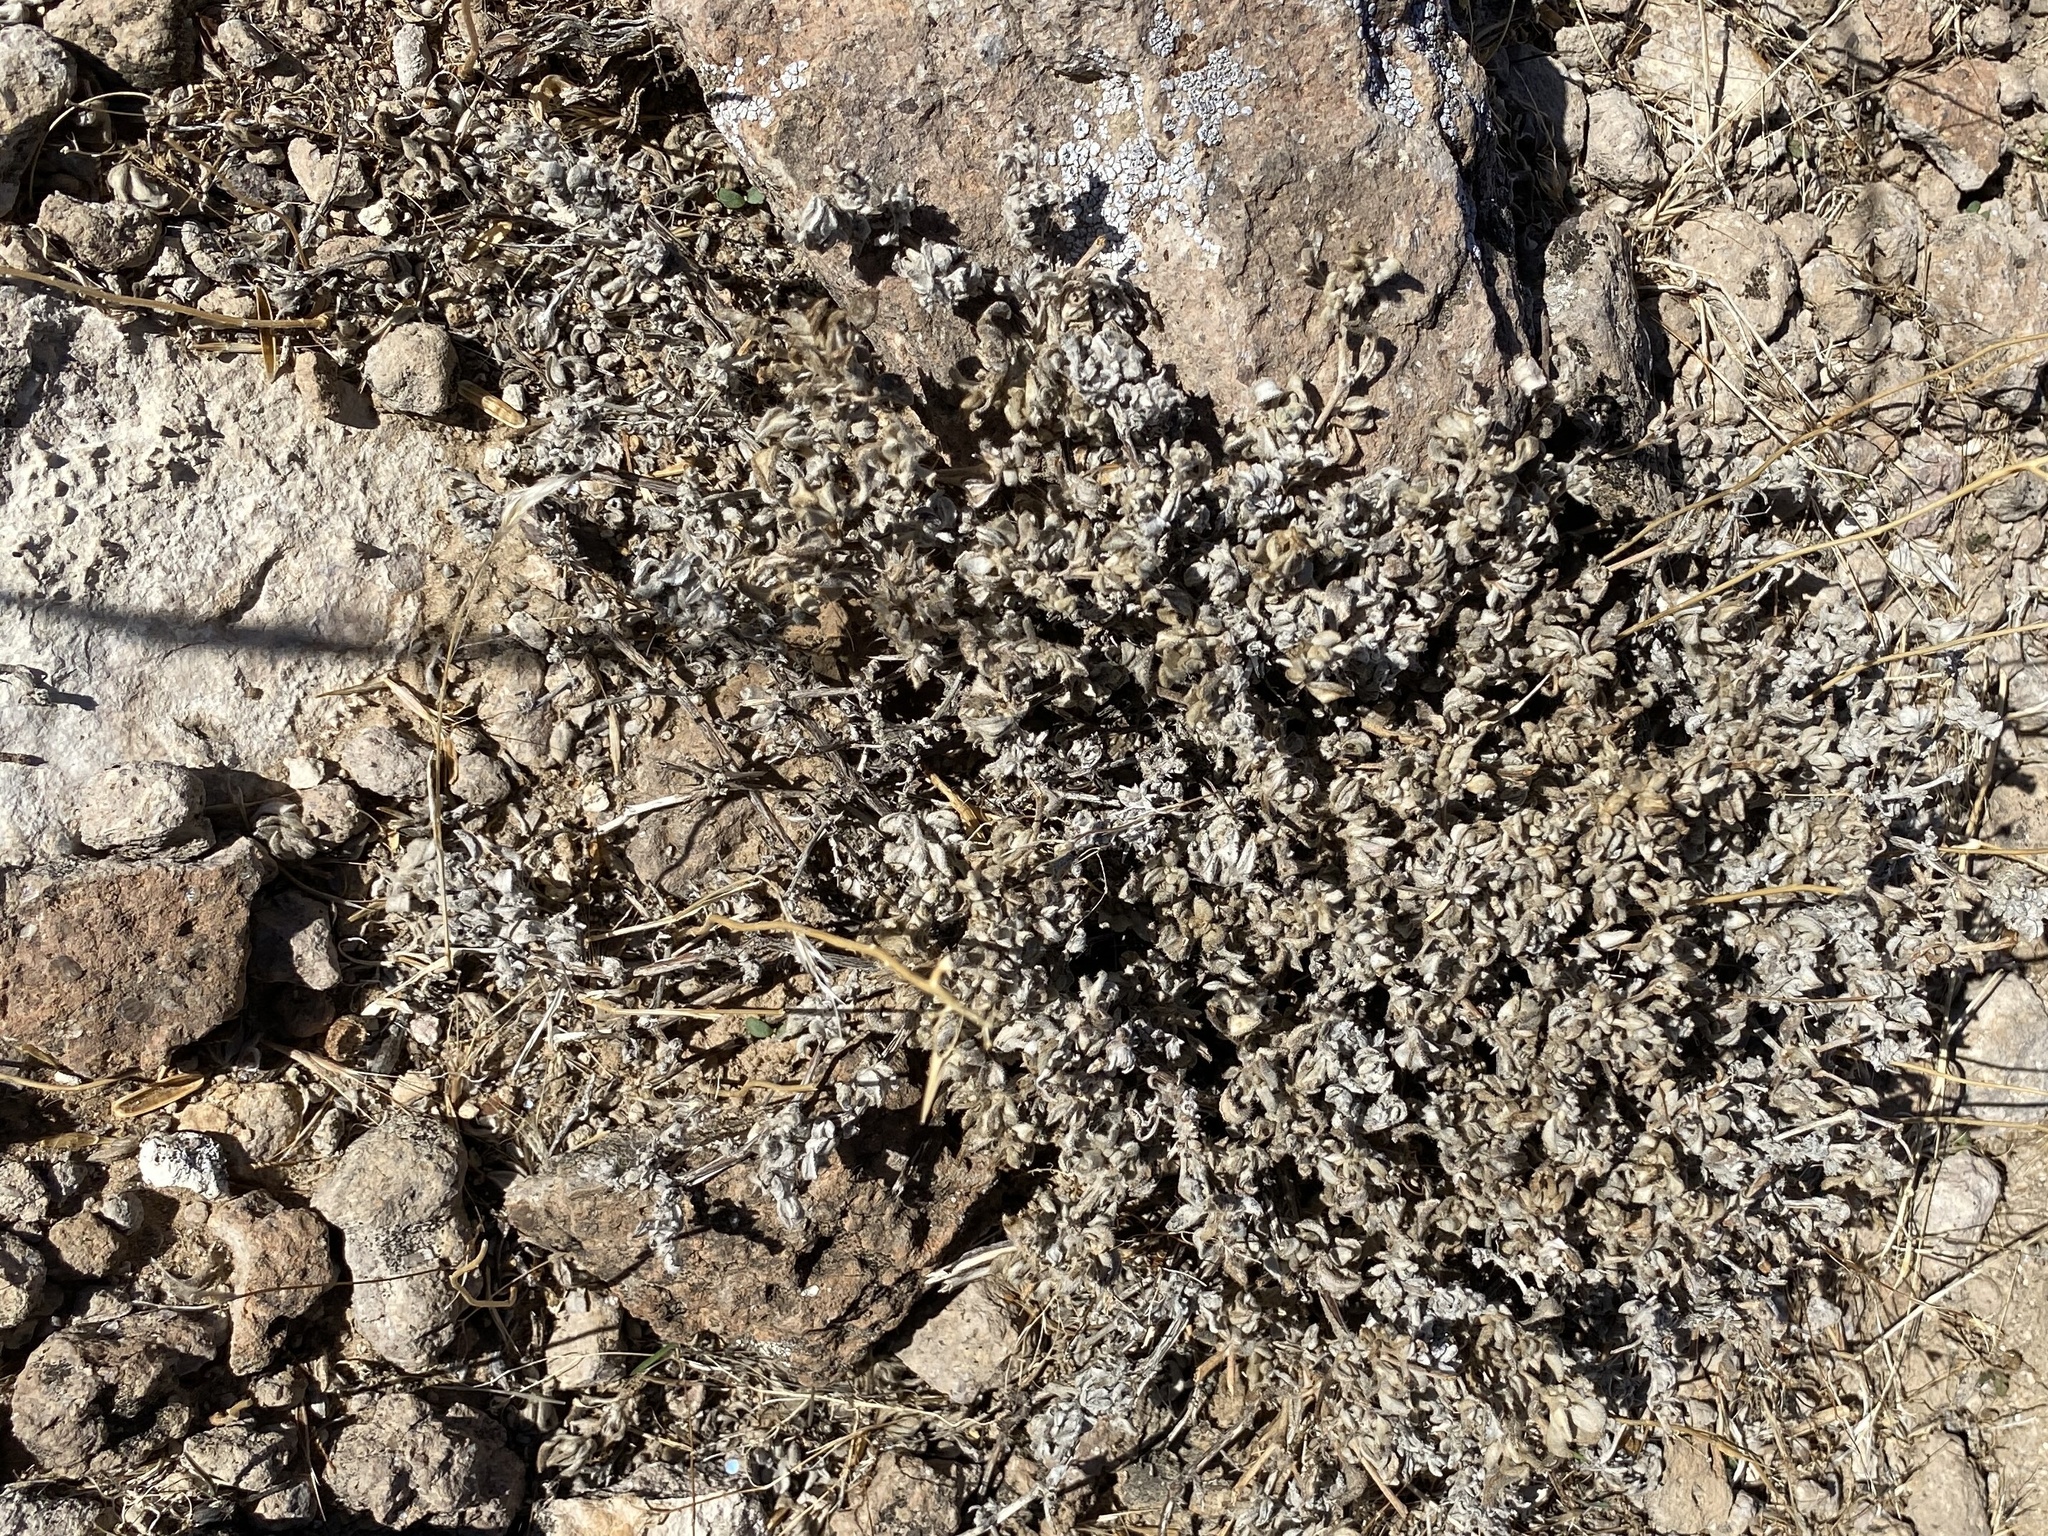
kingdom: Plantae
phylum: Tracheophyta
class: Magnoliopsida
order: Boraginales
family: Ehretiaceae
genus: Tiquilia
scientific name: Tiquilia canescens
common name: Hairy tiquilia
